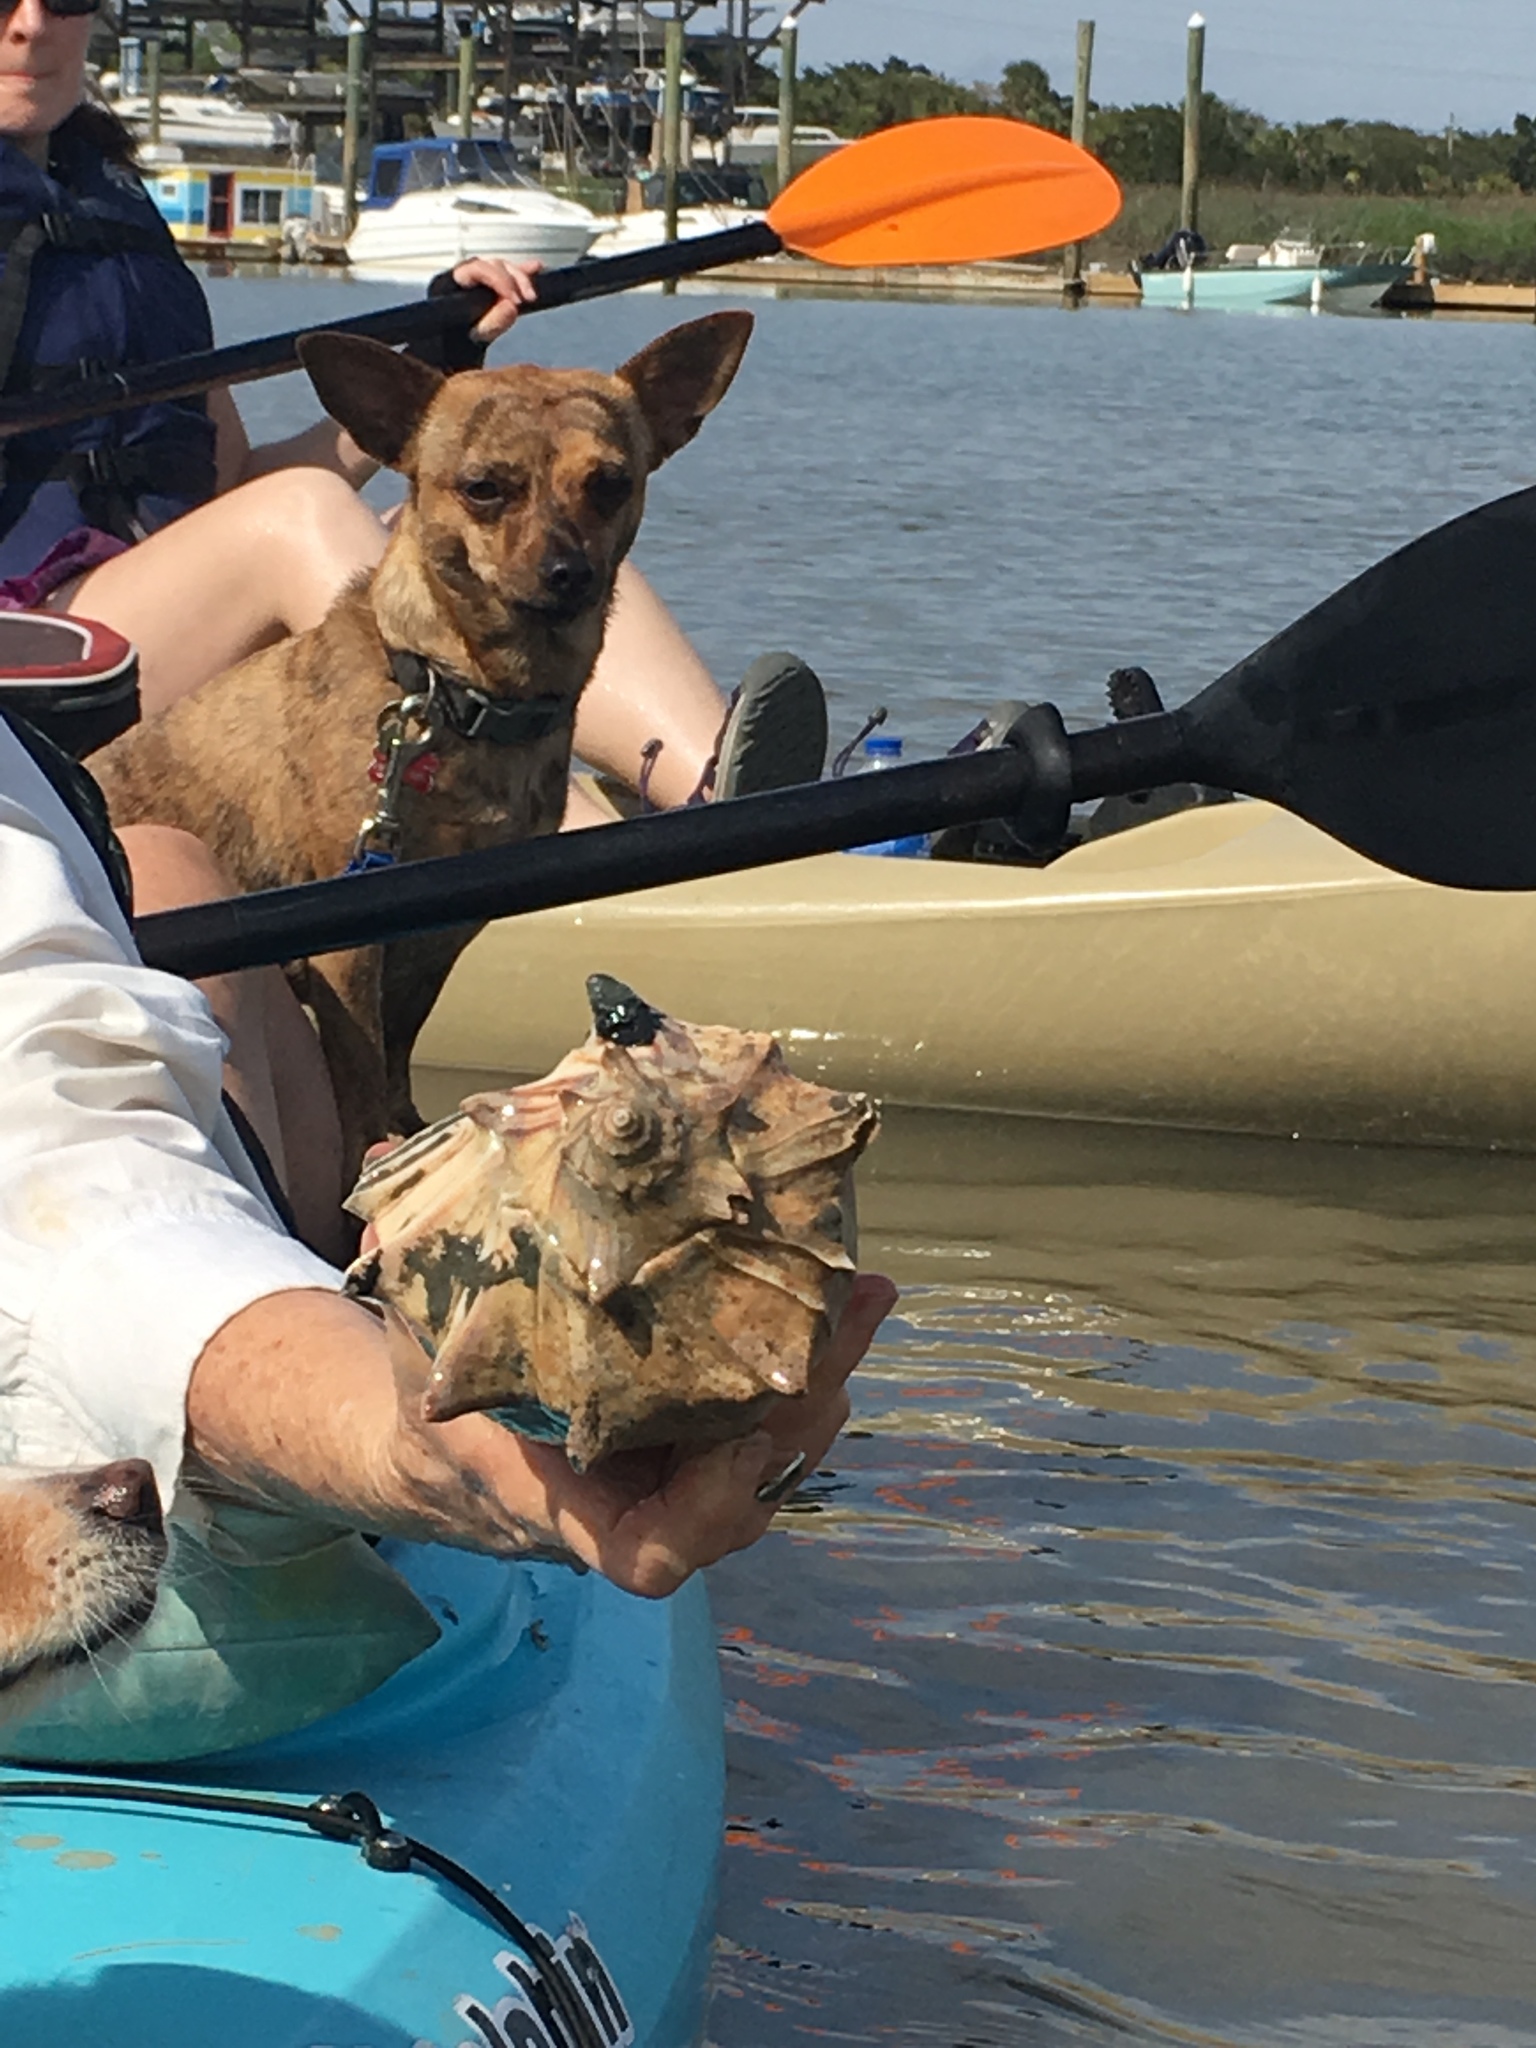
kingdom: Animalia
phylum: Mollusca
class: Gastropoda
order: Neogastropoda
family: Busyconidae
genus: Busycon
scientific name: Busycon carica
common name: Knobbed whelk
